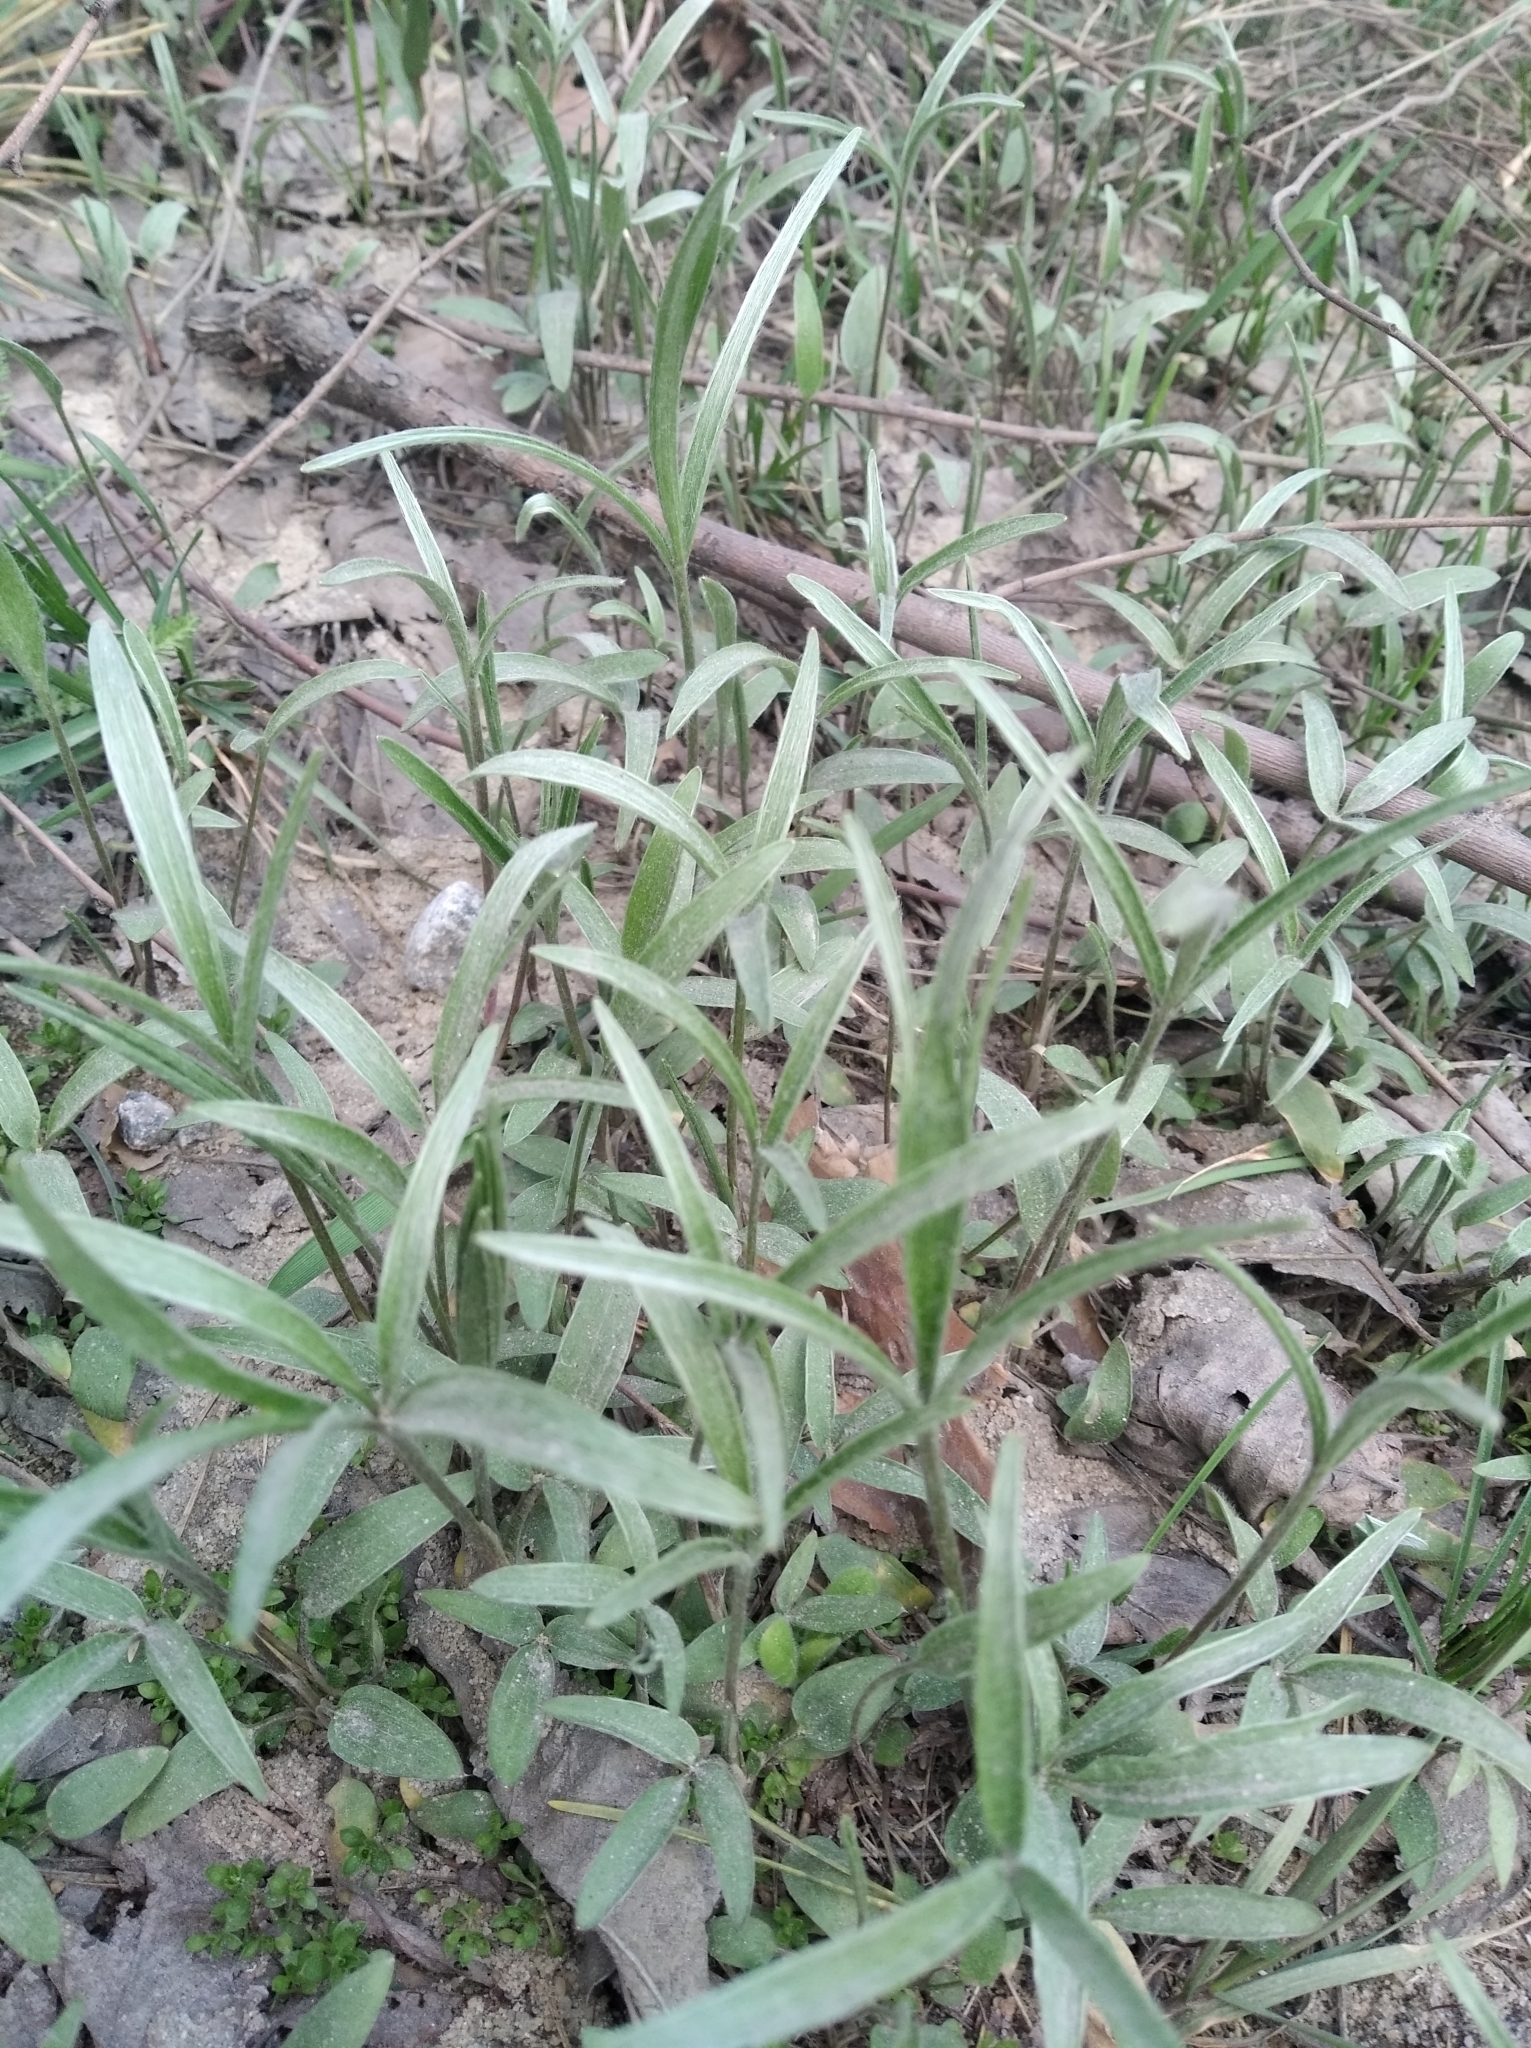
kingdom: Plantae
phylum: Tracheophyta
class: Magnoliopsida
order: Ranunculales
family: Ranunculaceae
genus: Ranunculus
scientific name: Ranunculus illyricus
